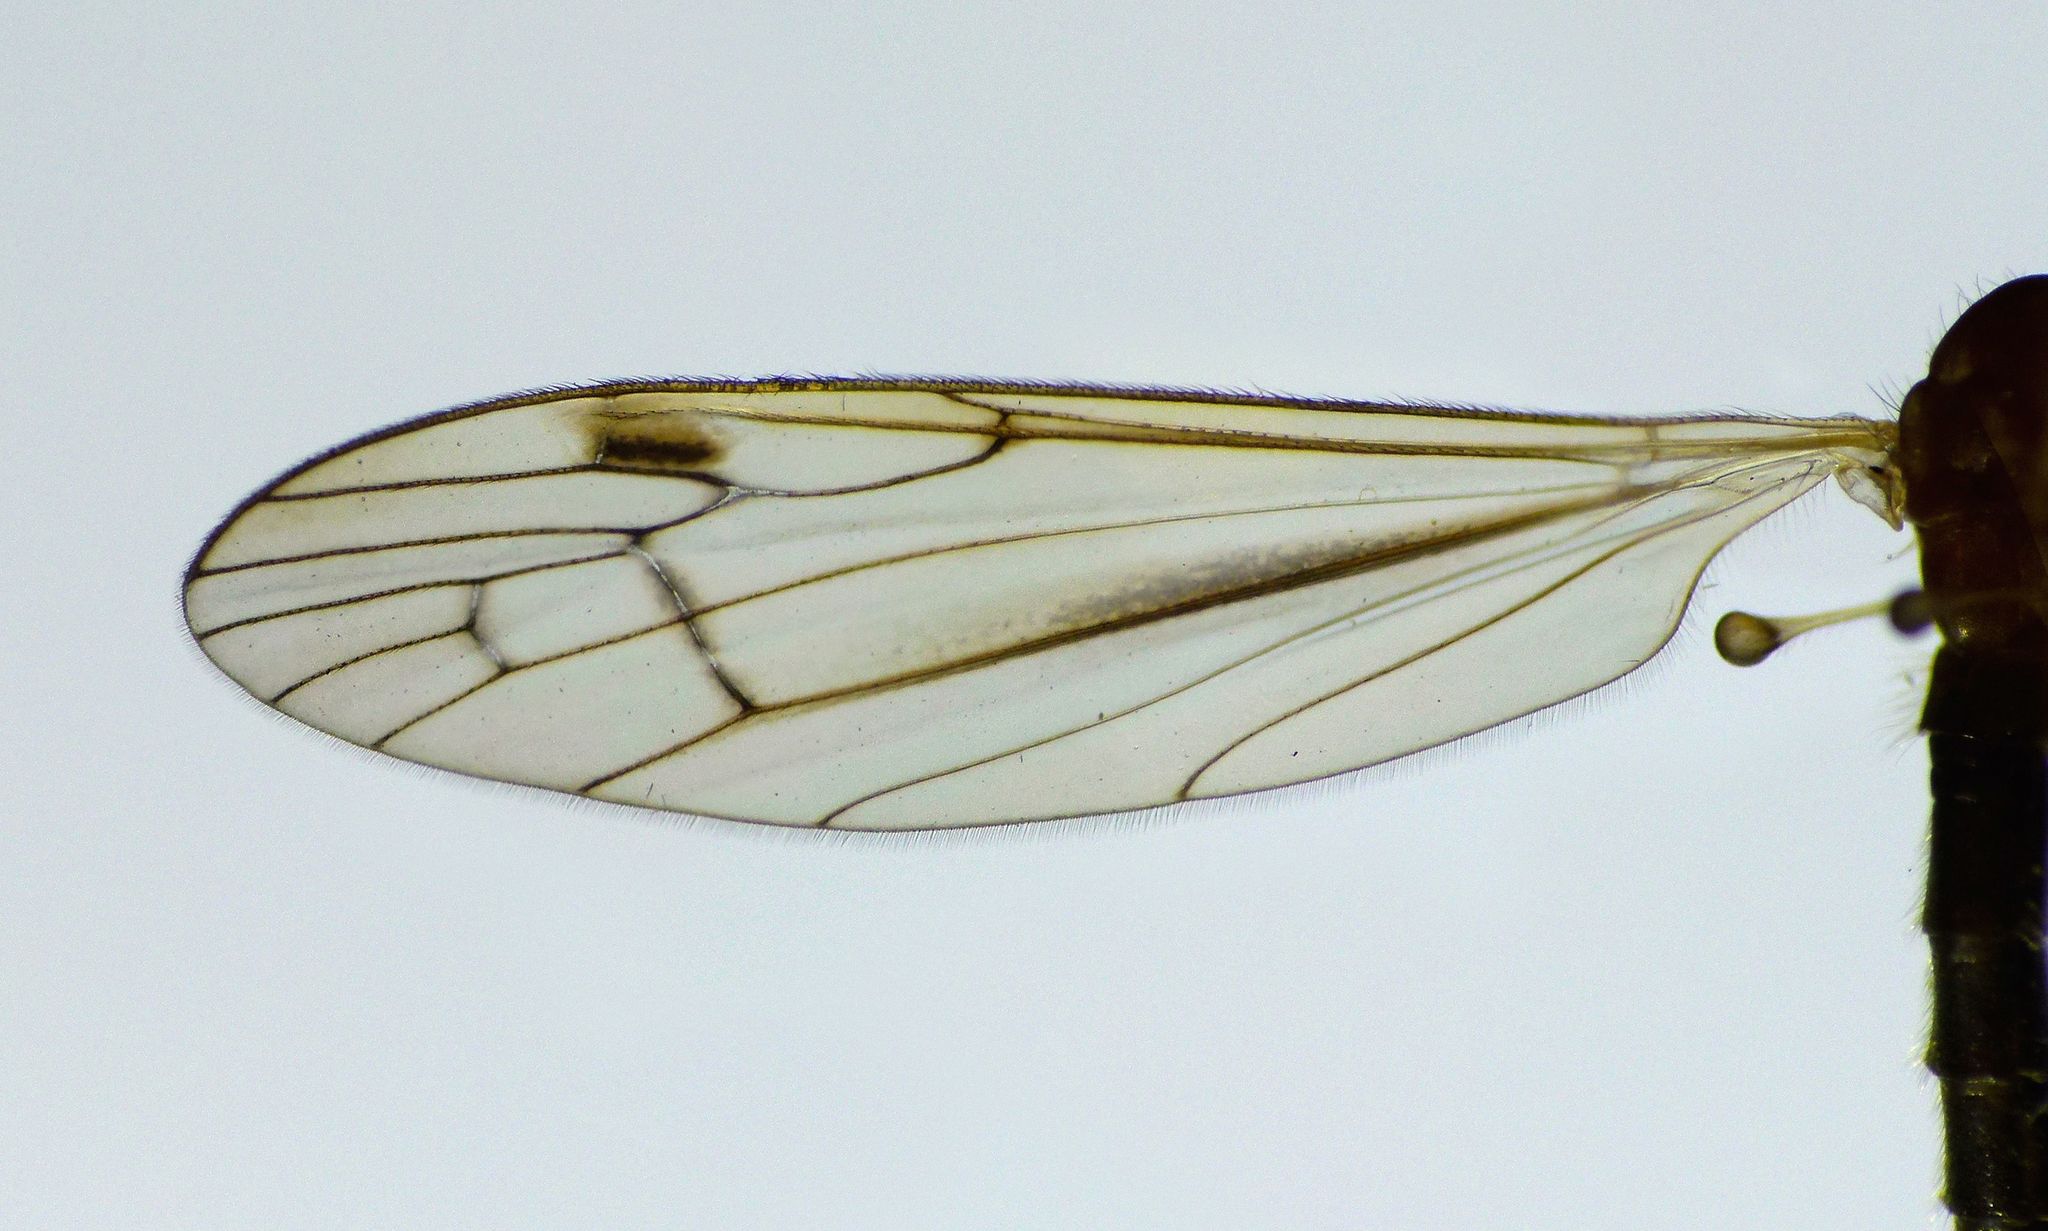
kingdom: Animalia
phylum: Arthropoda
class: Insecta
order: Diptera
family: Limoniidae
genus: Dicranomyia
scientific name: Dicranomyia cubitalis
